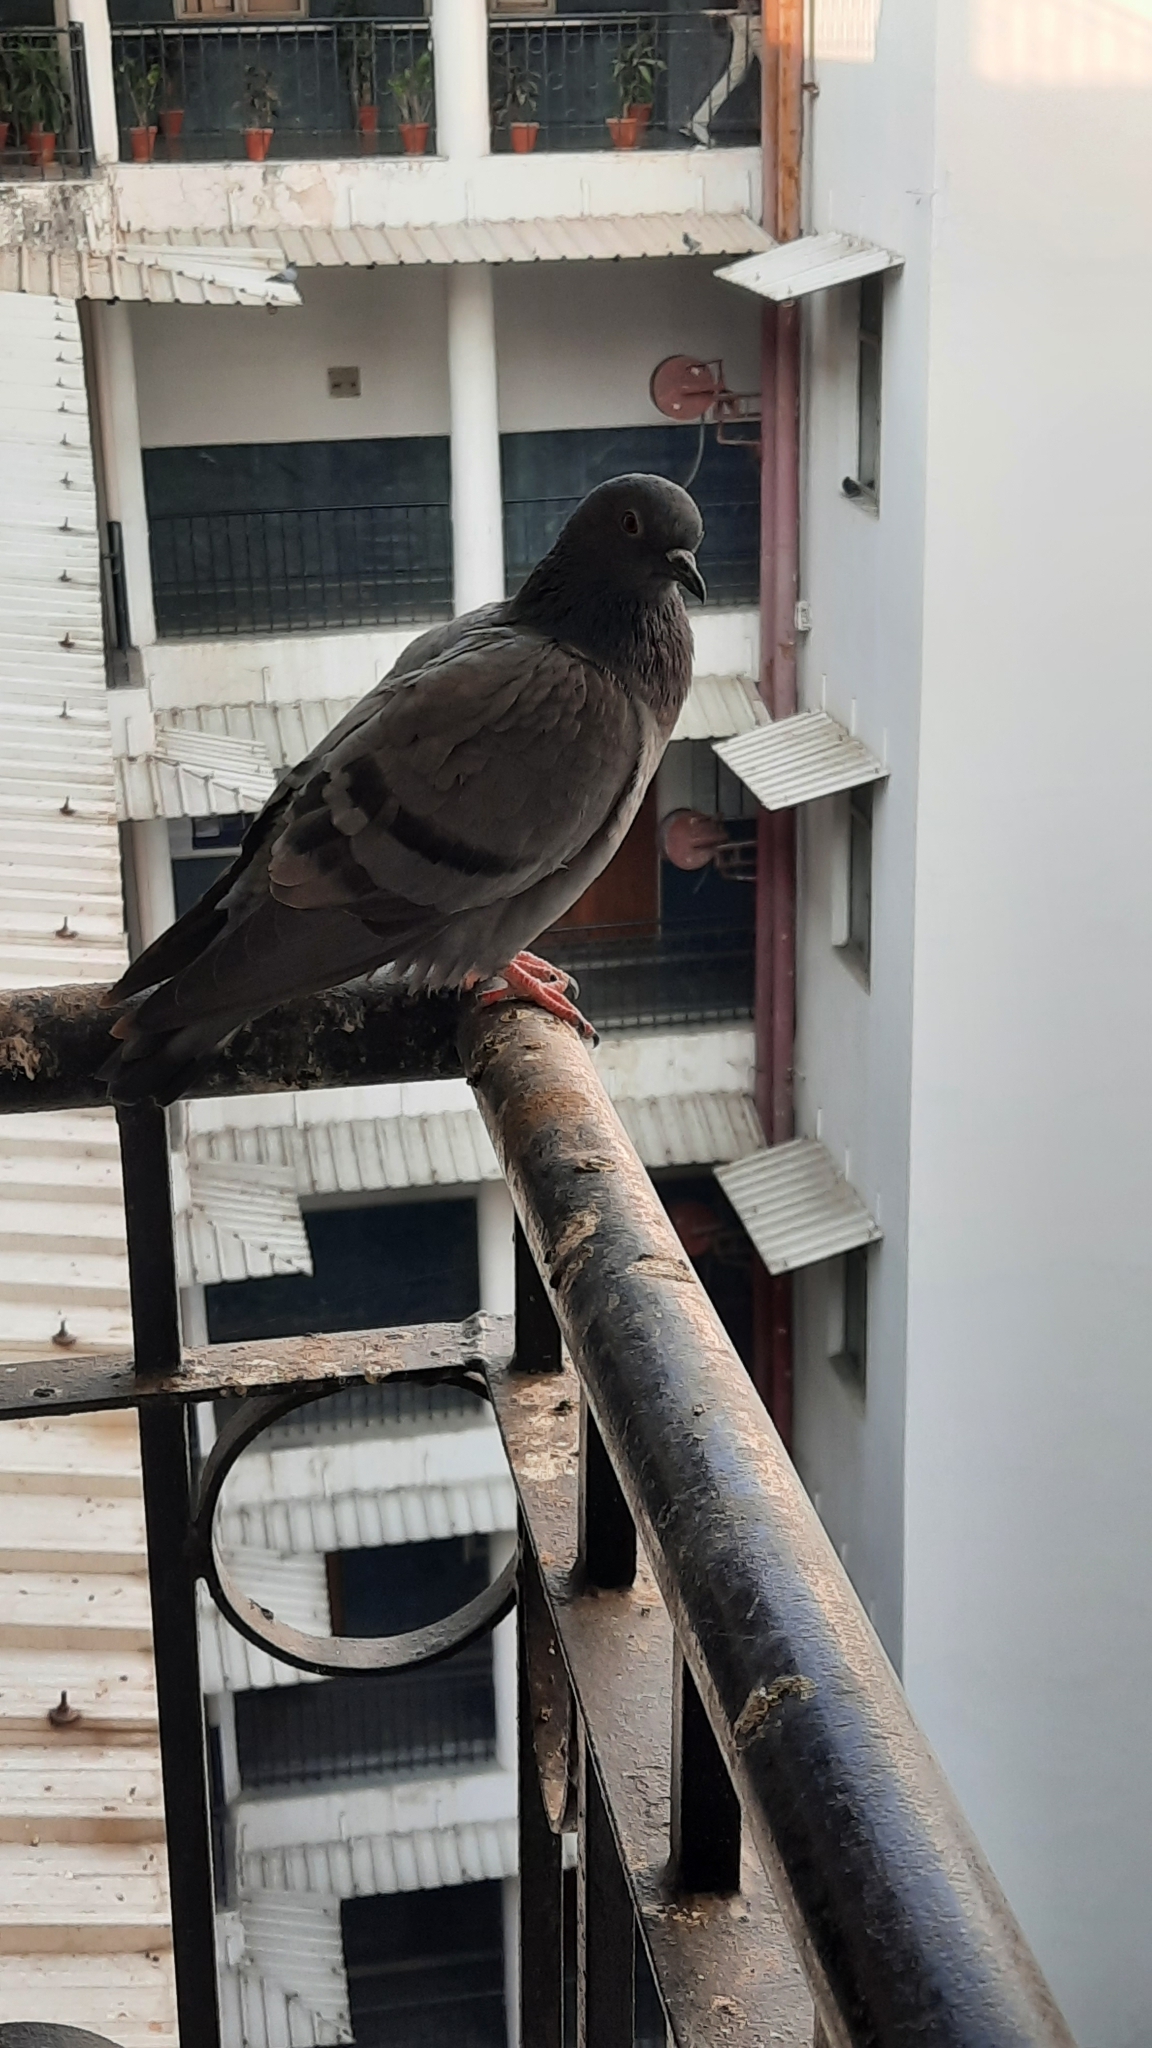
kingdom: Animalia
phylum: Chordata
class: Aves
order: Columbiformes
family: Columbidae
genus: Columba
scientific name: Columba livia
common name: Rock pigeon
